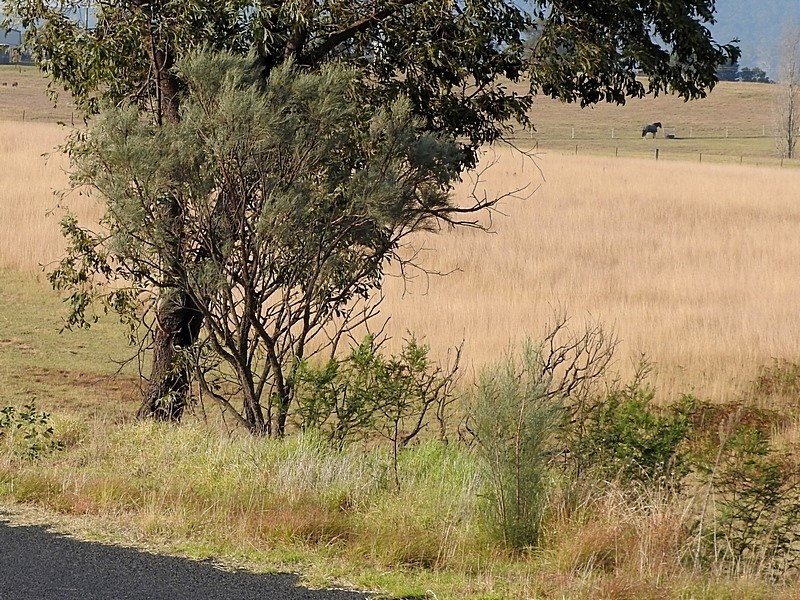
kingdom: Plantae
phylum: Tracheophyta
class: Magnoliopsida
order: Fabales
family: Fabaceae
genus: Jacksonia
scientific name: Jacksonia scoparia
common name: Dogwood
